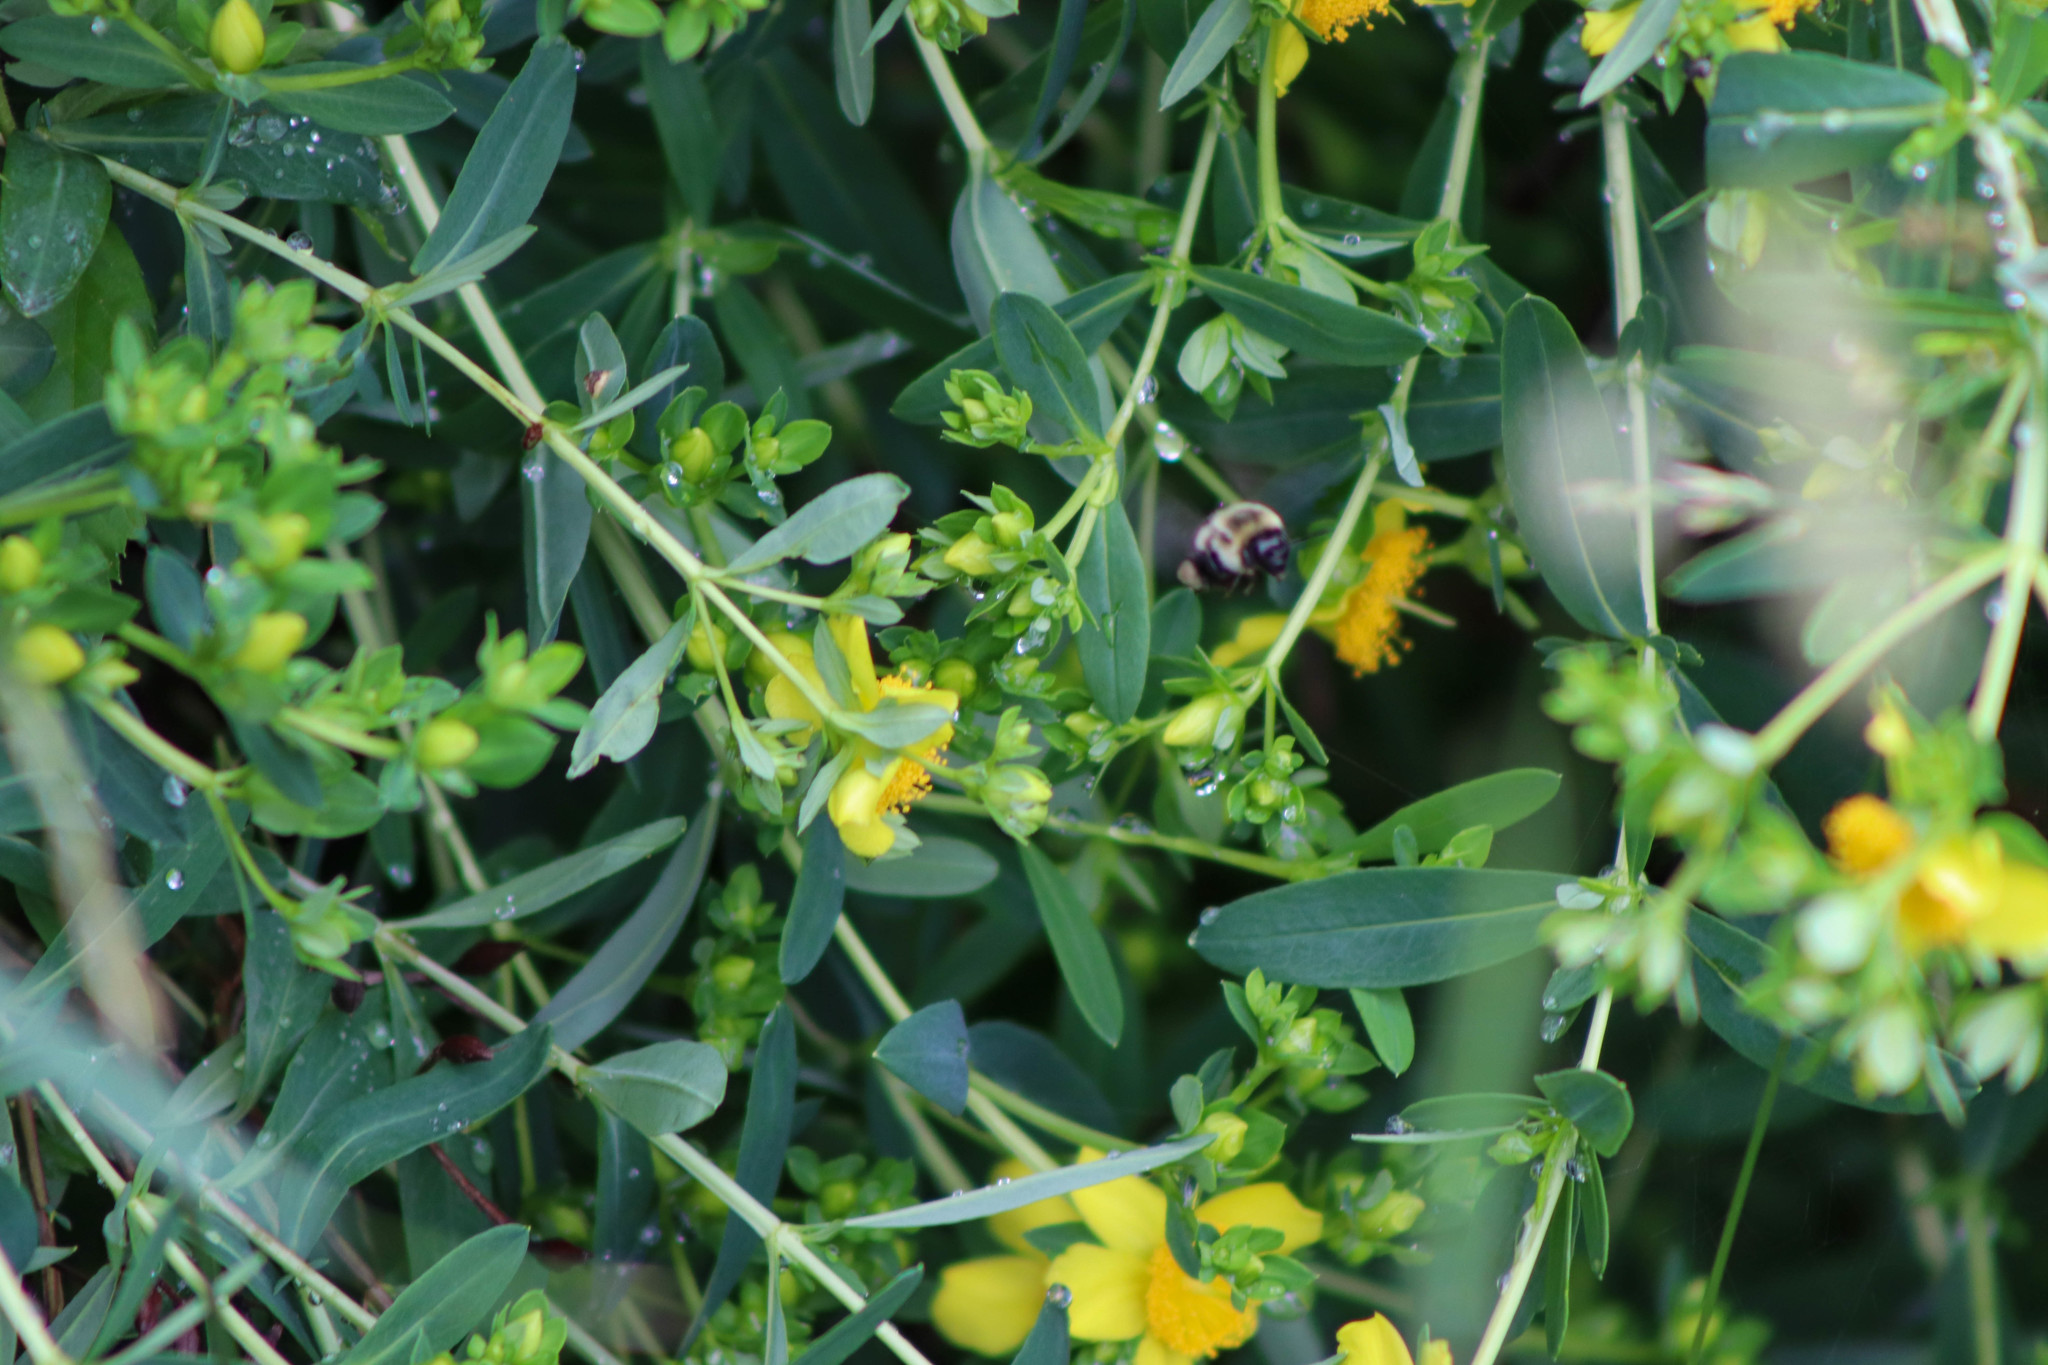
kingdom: Animalia
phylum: Arthropoda
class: Insecta
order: Hymenoptera
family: Apidae
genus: Bombus
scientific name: Bombus impatiens
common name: Common eastern bumble bee
